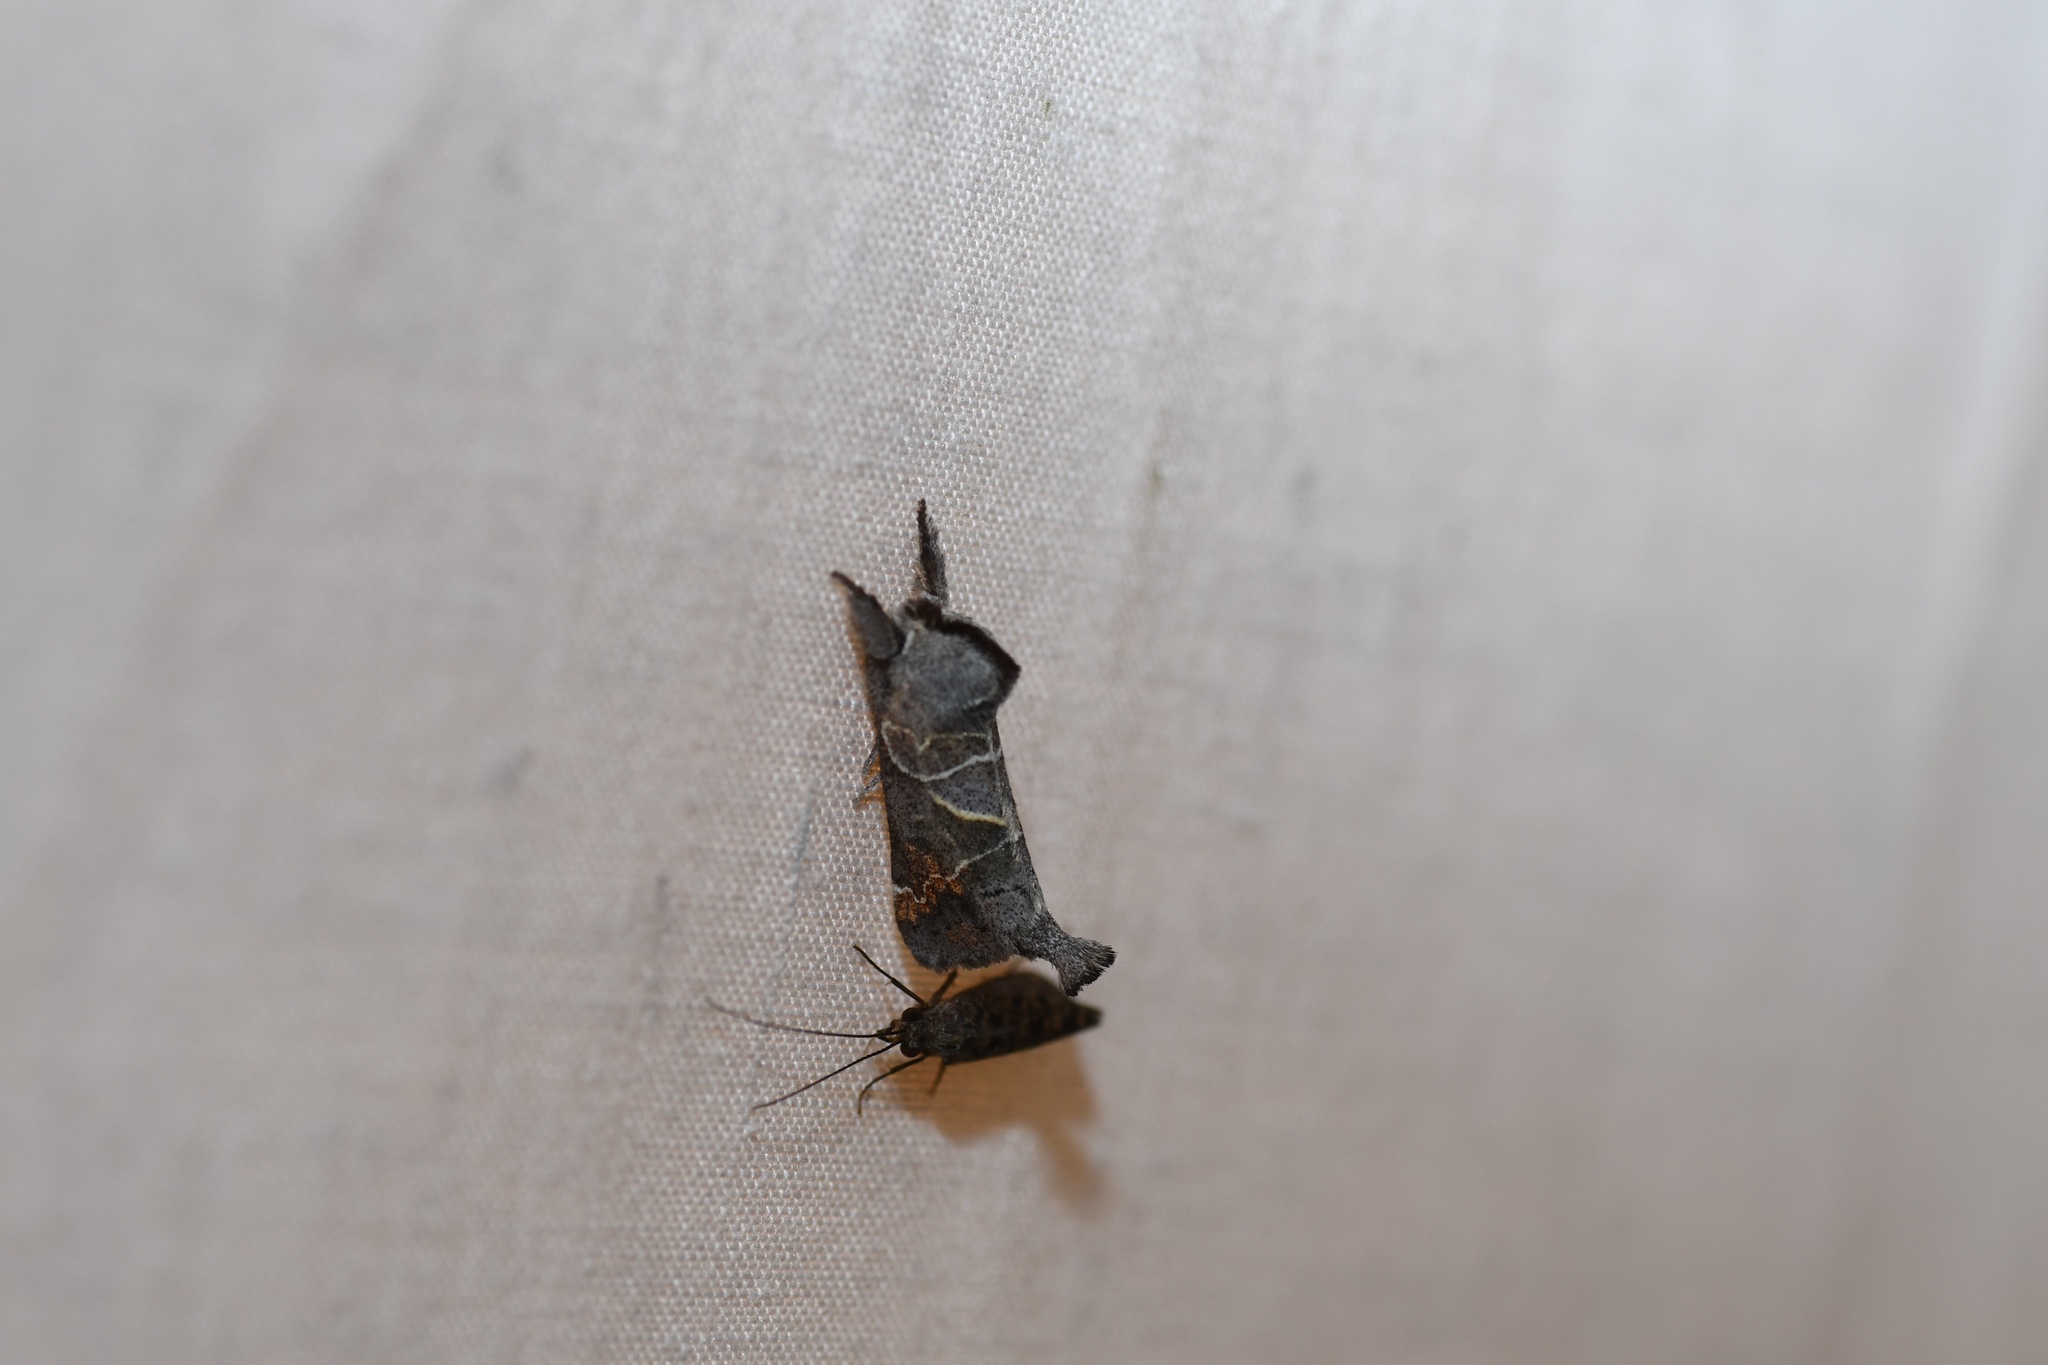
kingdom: Animalia
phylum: Arthropoda
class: Insecta
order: Lepidoptera
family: Notodontidae
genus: Clostera
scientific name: Clostera apicalis
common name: Apical prominent
